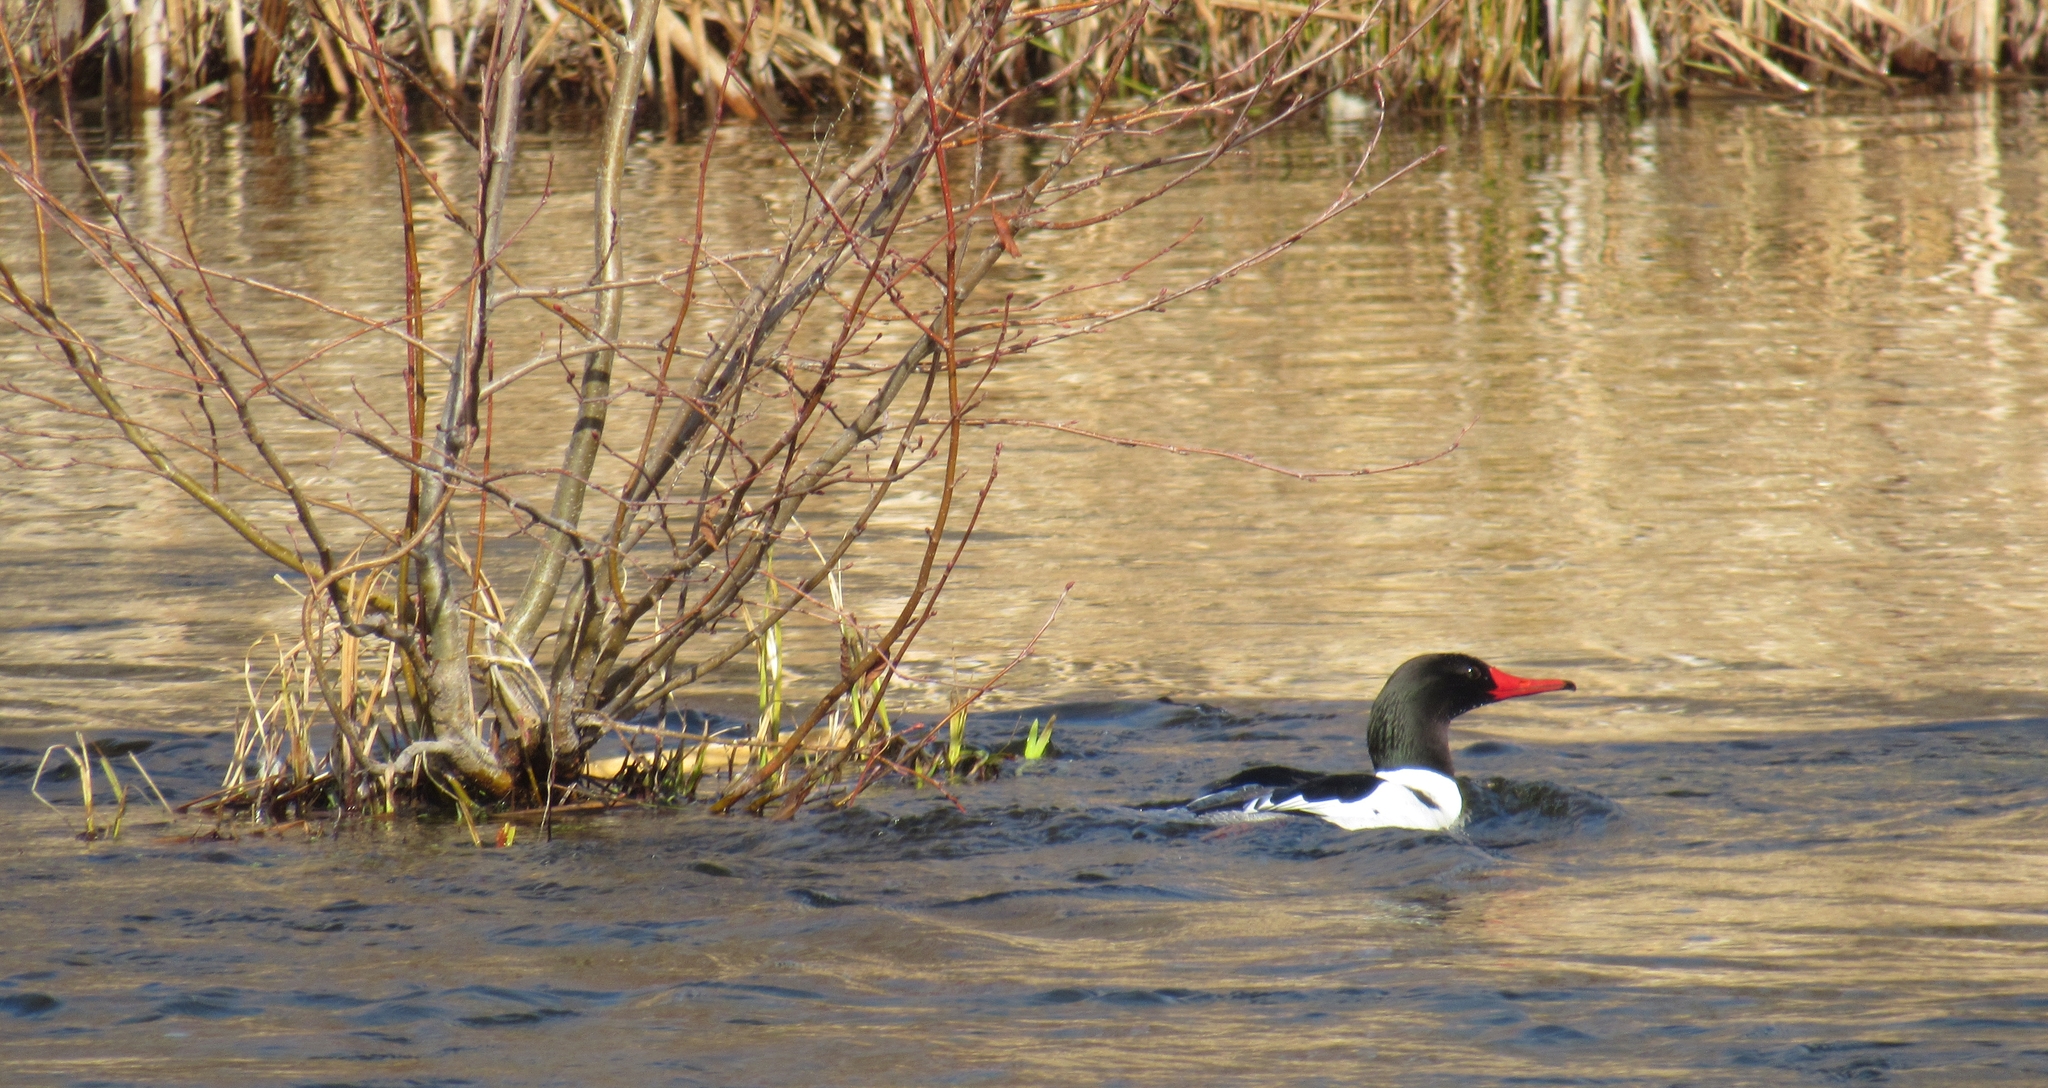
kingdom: Animalia
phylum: Chordata
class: Aves
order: Anseriformes
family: Anatidae
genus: Mergus
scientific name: Mergus merganser
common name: Common merganser
